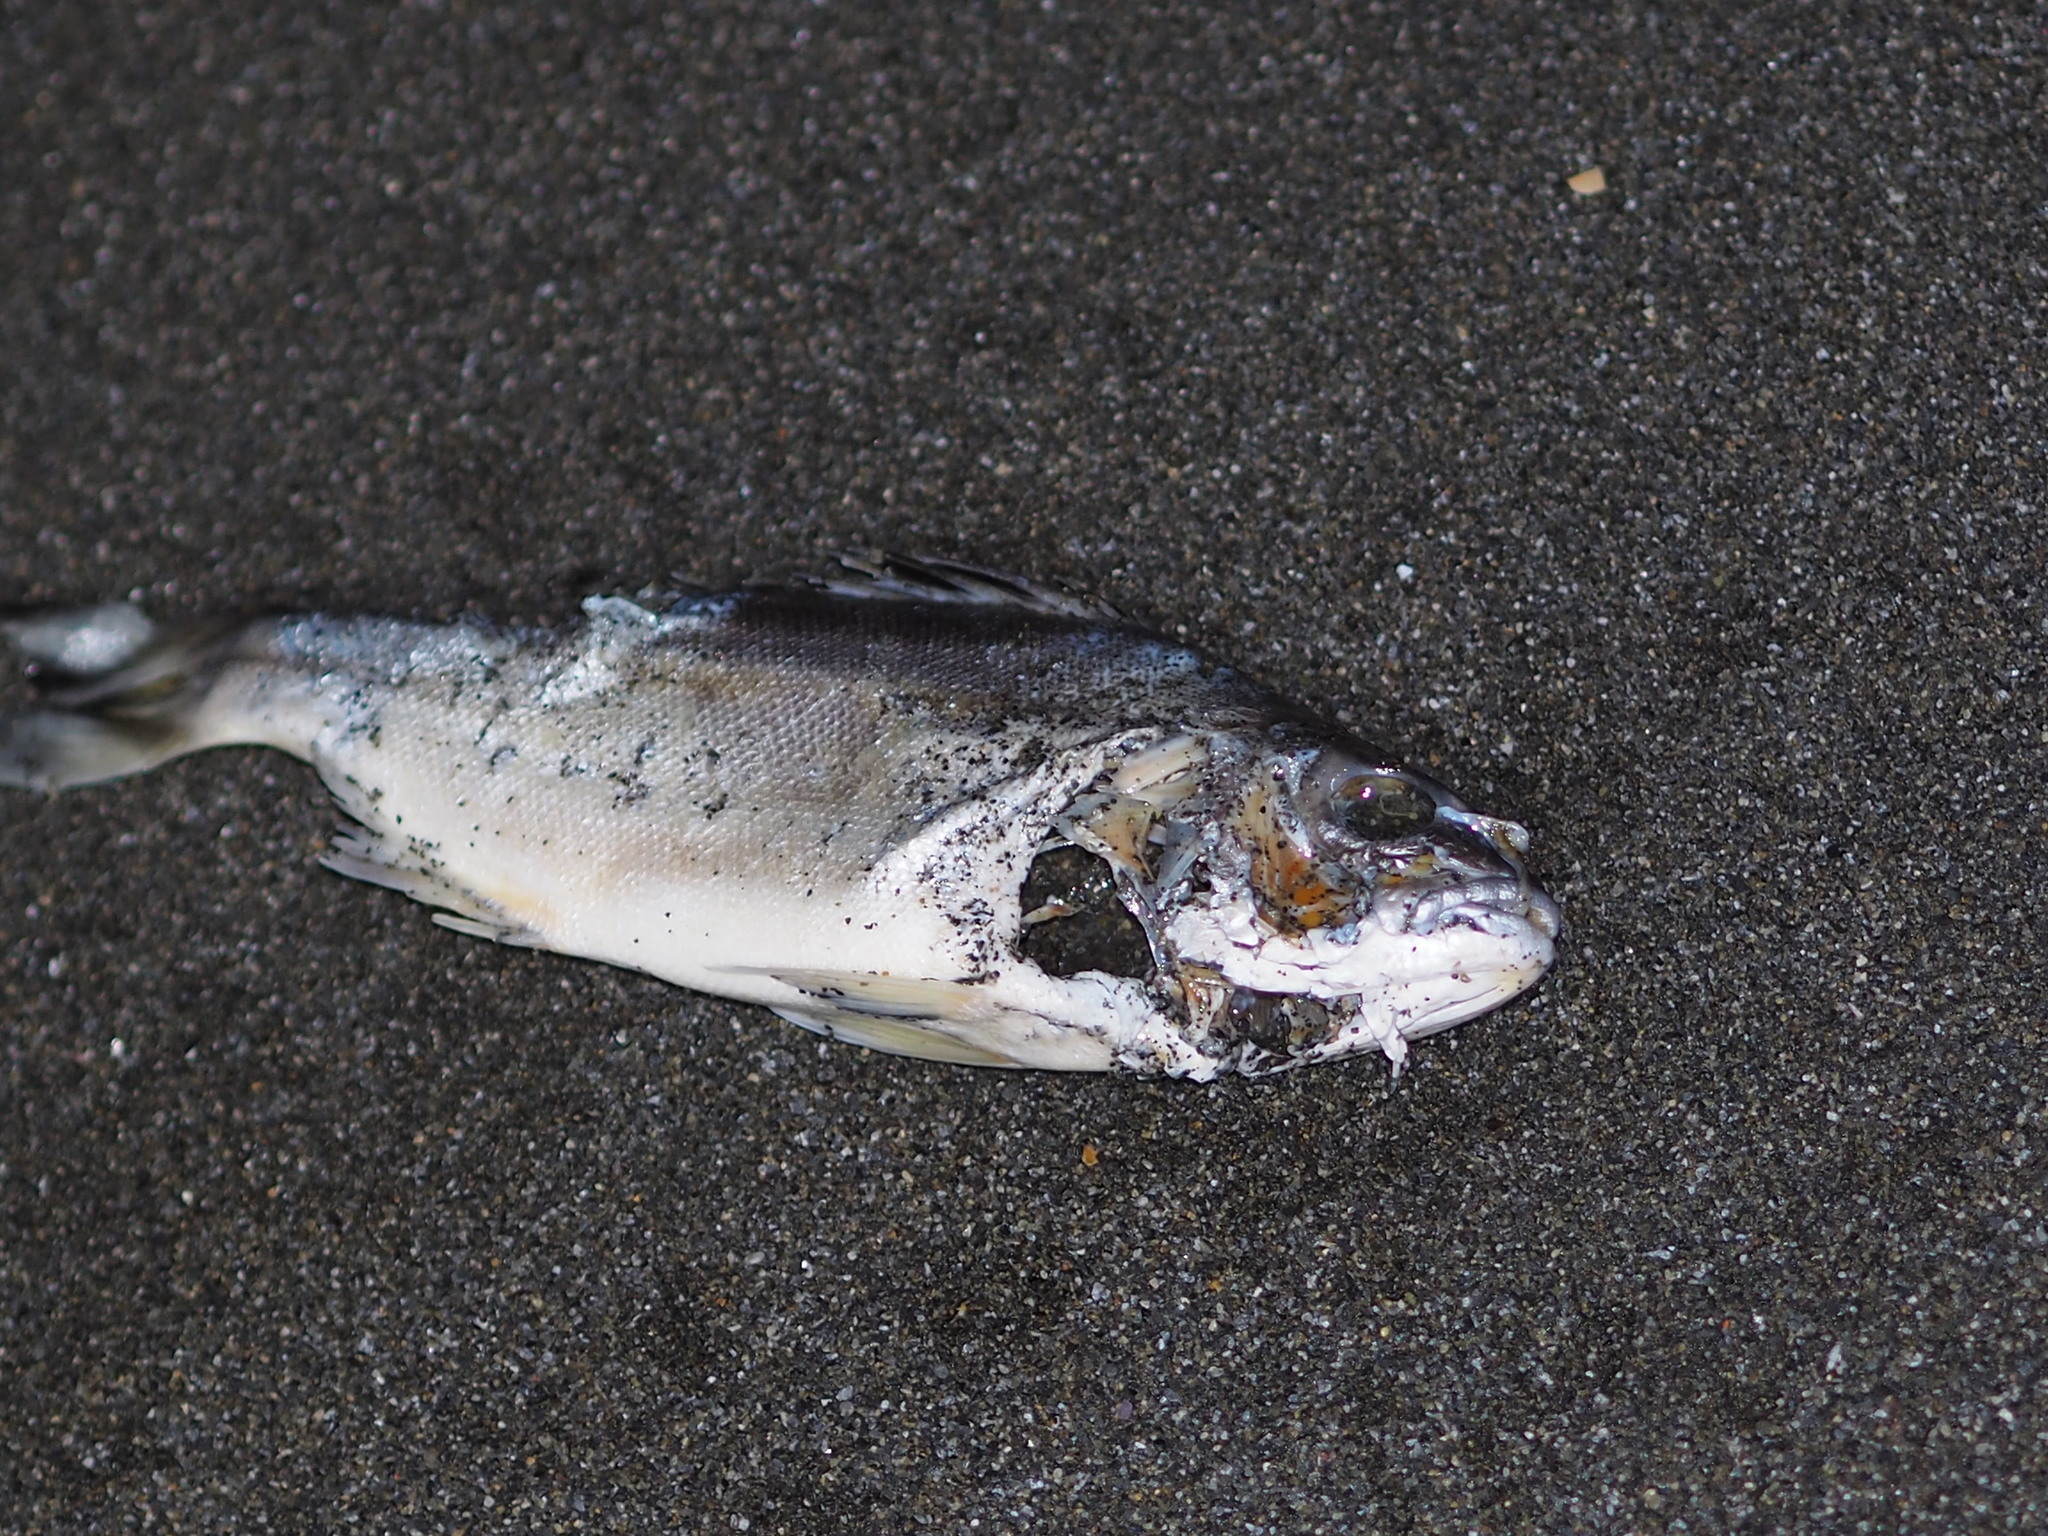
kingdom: Animalia
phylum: Chordata
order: Perciformes
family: Terapontidae
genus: Terapon
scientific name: Terapon jarbua
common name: Jarbua terapon
